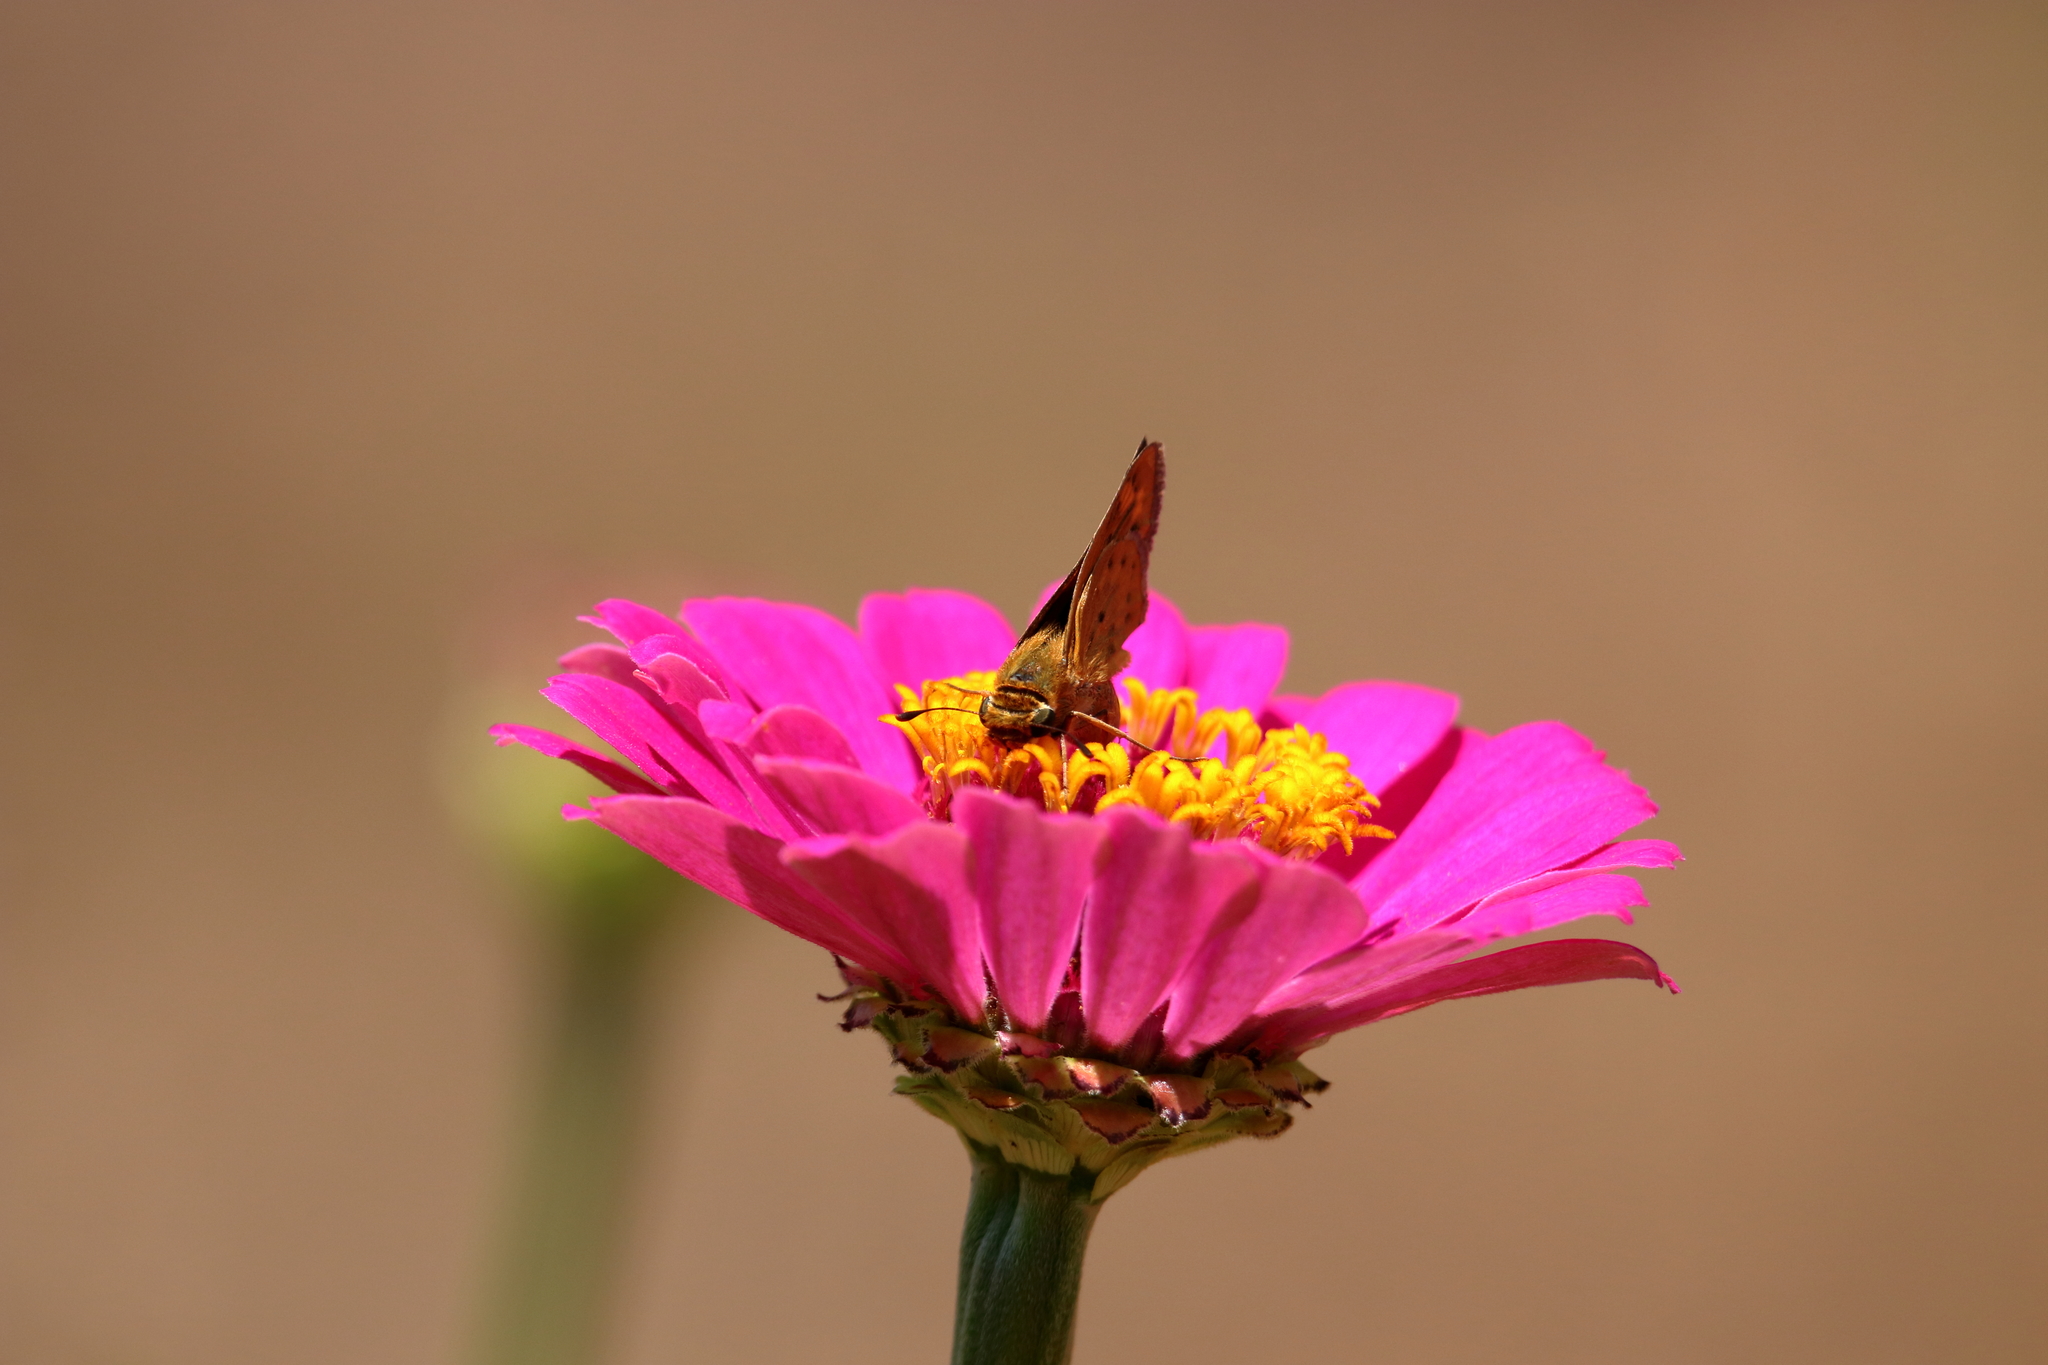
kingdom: Animalia
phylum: Arthropoda
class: Insecta
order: Lepidoptera
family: Hesperiidae
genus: Hylephila
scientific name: Hylephila phyleus
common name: Fiery skipper
